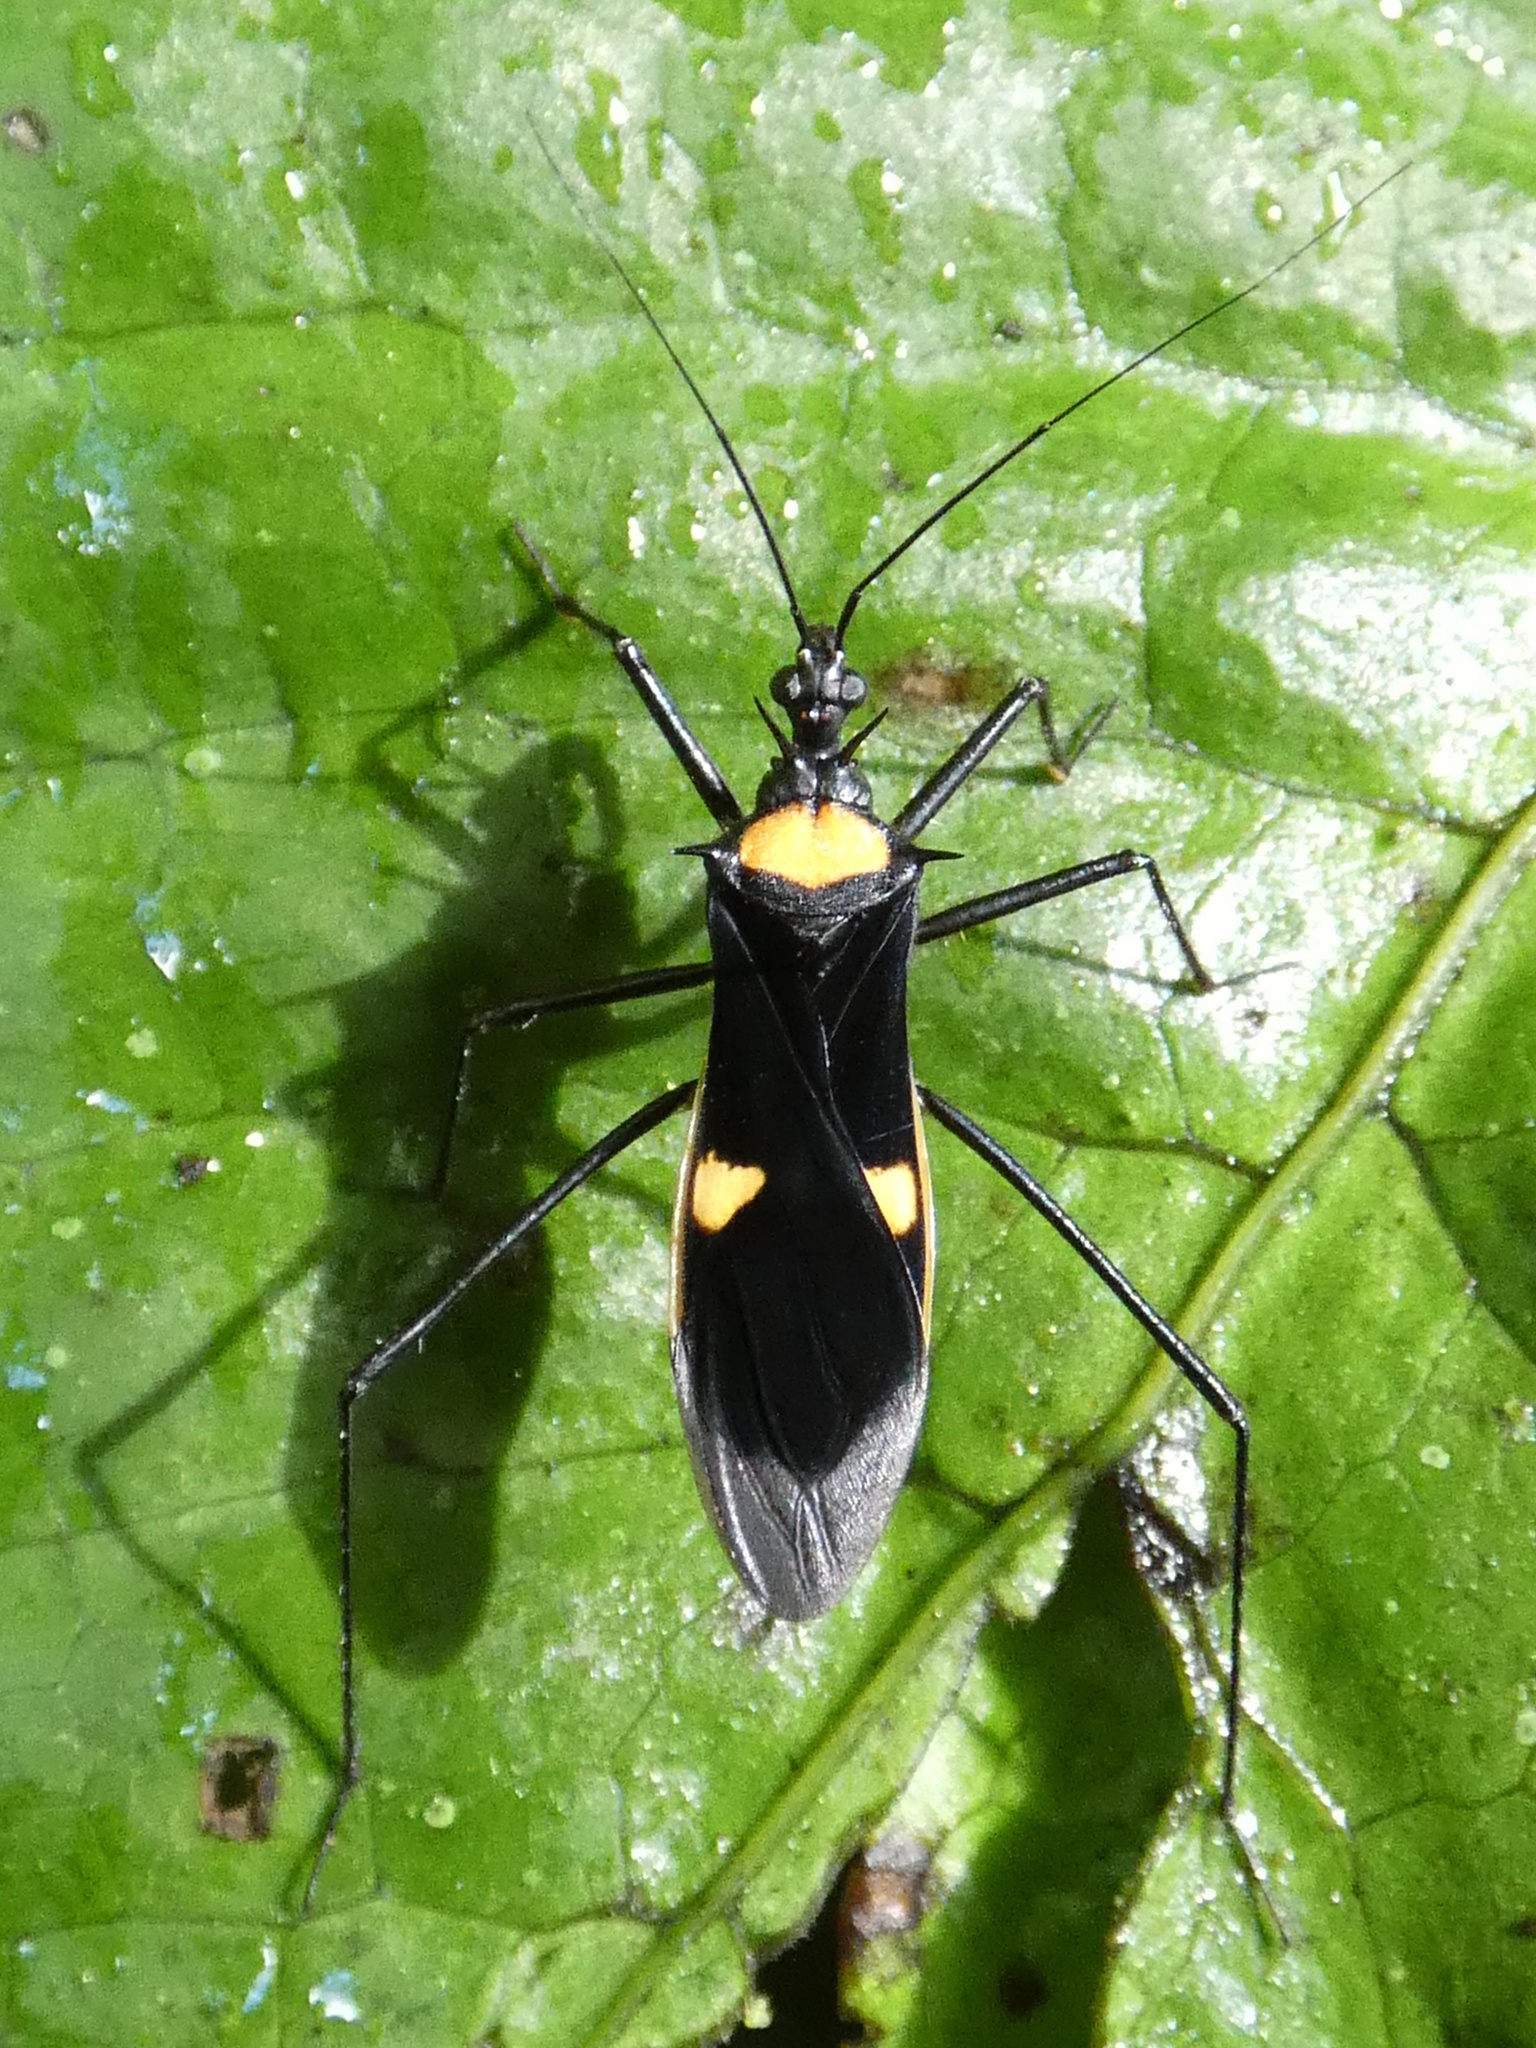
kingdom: Animalia
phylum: Arthropoda
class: Insecta
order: Hemiptera
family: Reduviidae
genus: Zelurus
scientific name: Zelurus championi
